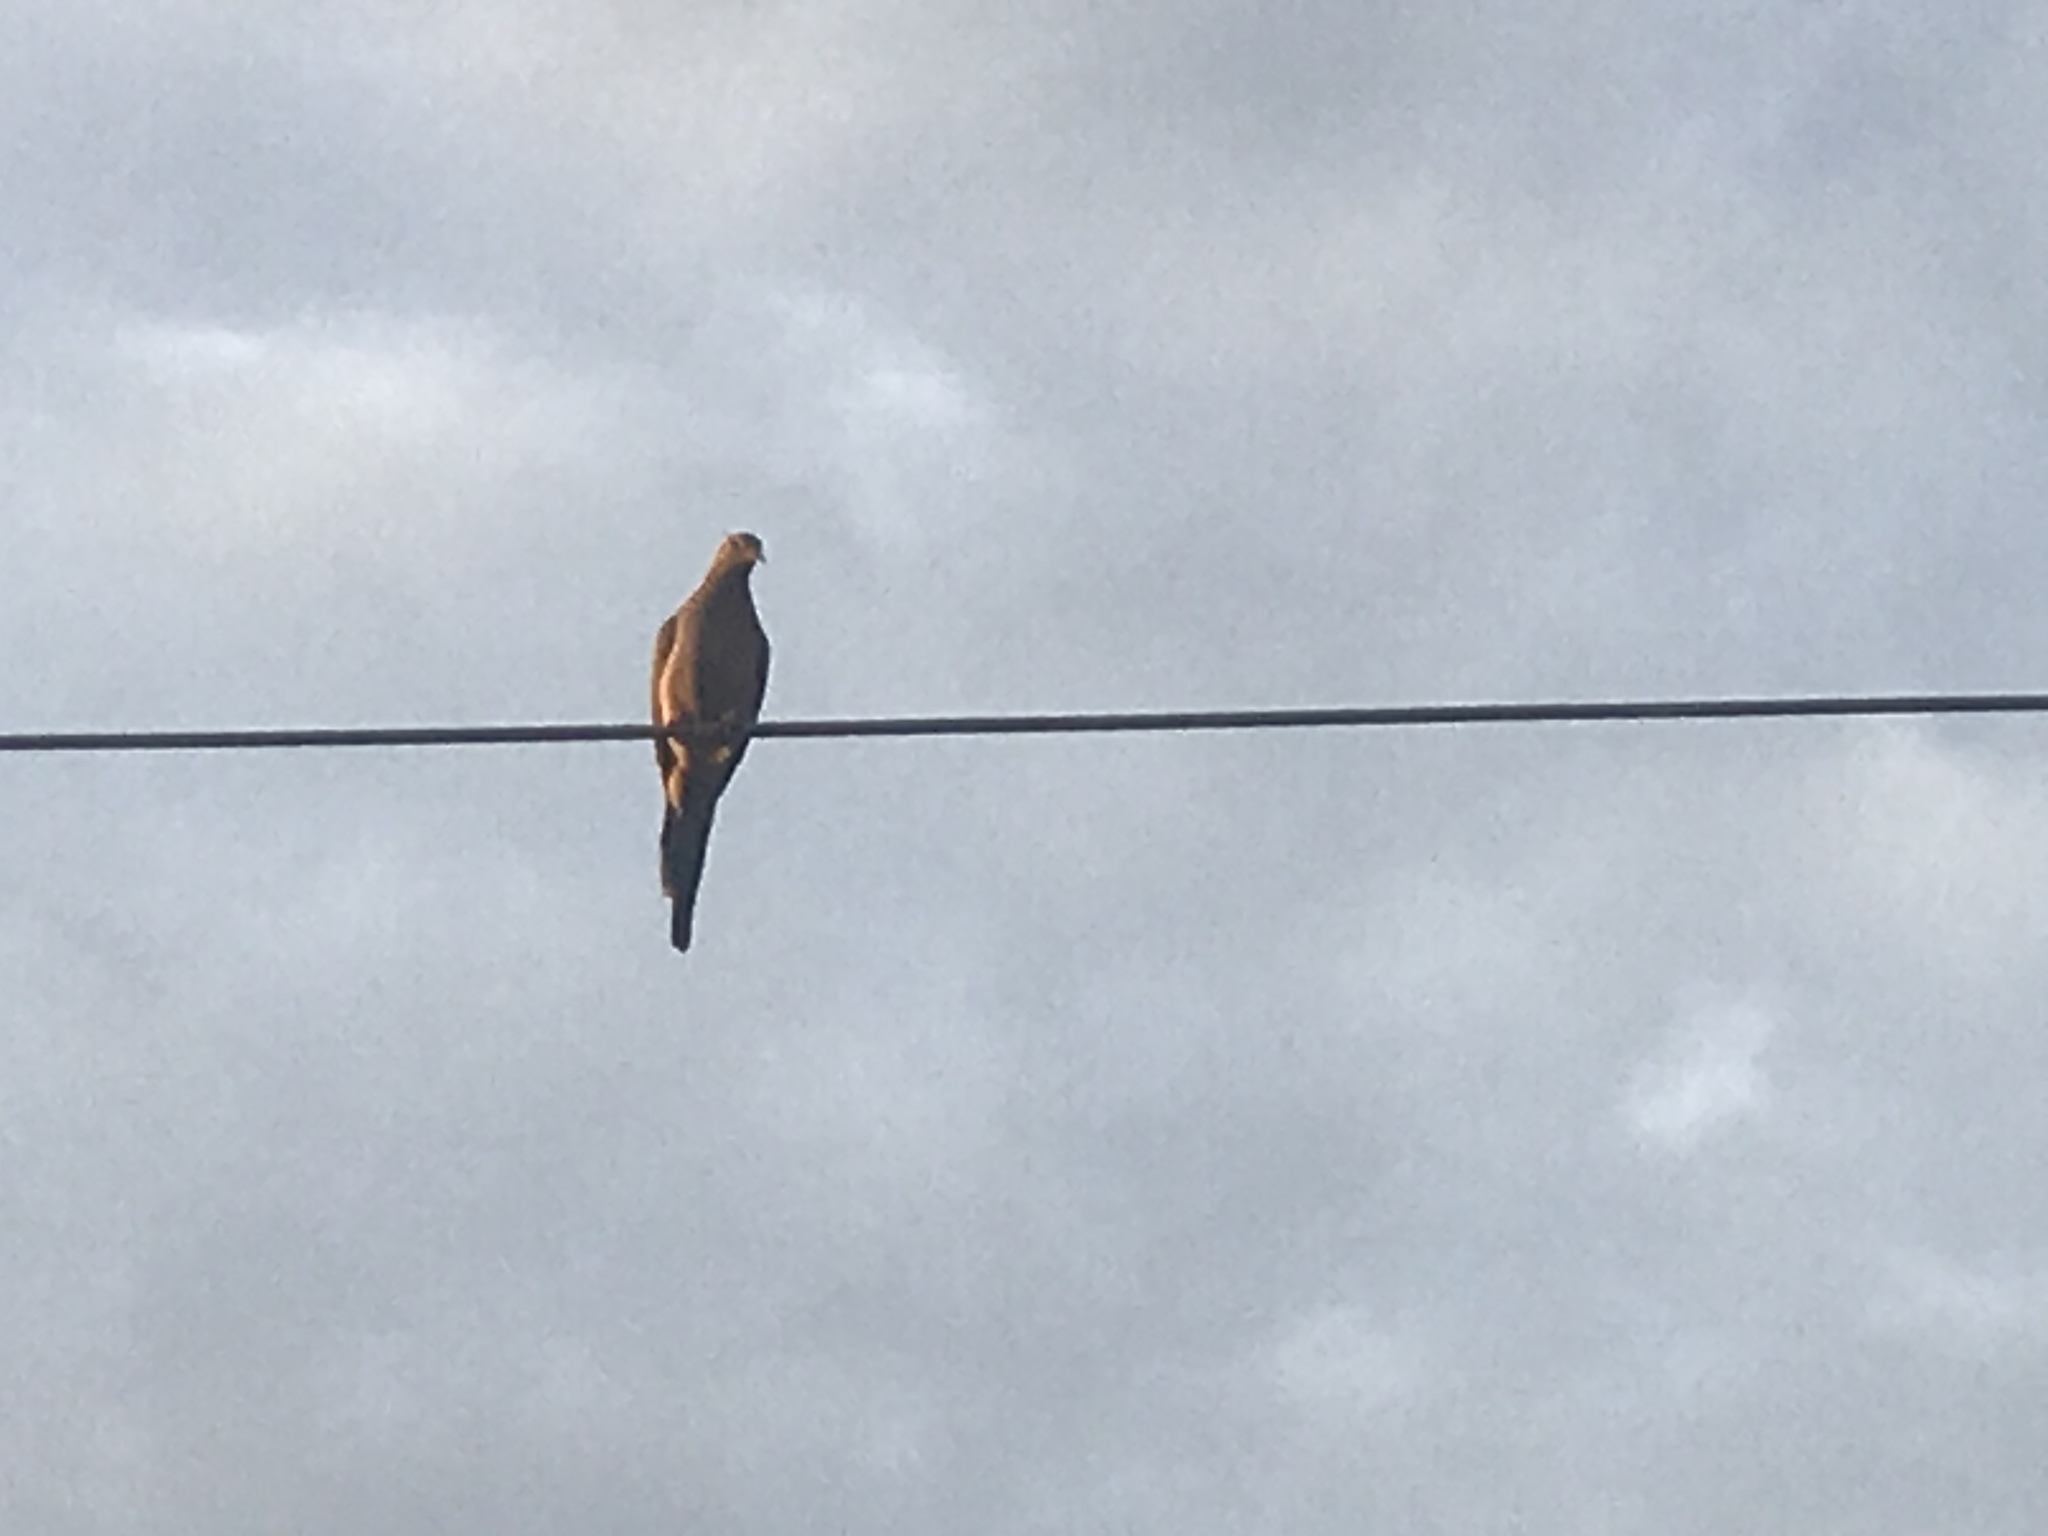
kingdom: Animalia
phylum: Chordata
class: Aves
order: Columbiformes
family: Columbidae
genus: Zenaida
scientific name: Zenaida macroura
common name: Mourning dove
